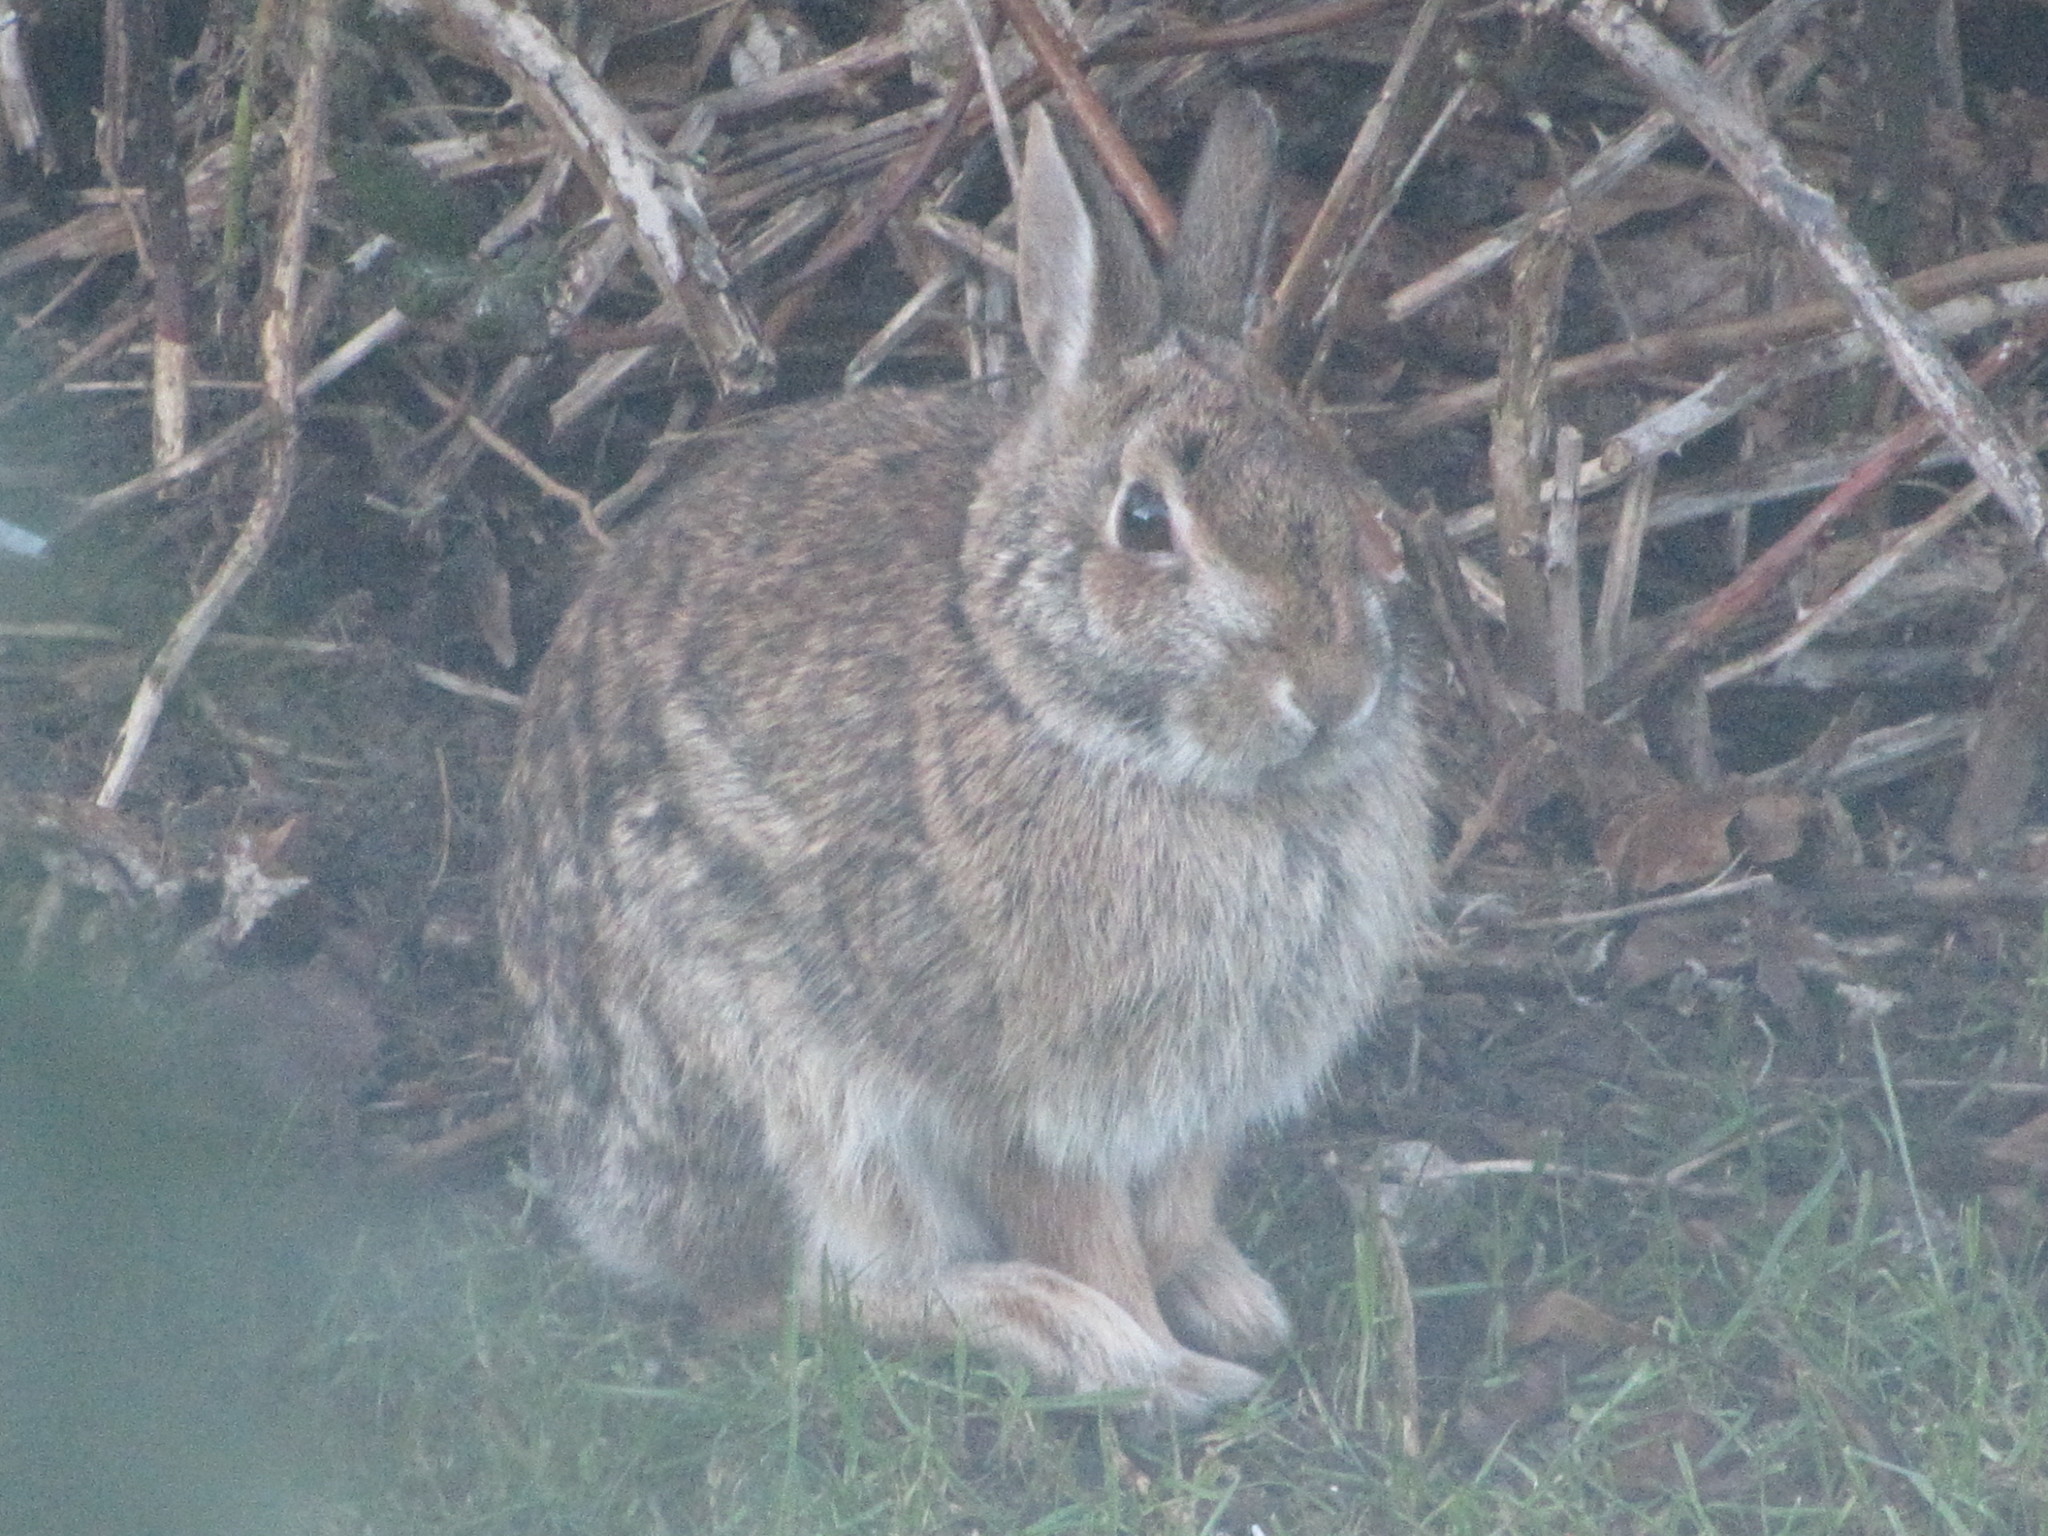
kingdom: Animalia
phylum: Chordata
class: Mammalia
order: Lagomorpha
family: Leporidae
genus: Sylvilagus
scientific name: Sylvilagus floridanus
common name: Eastern cottontail
